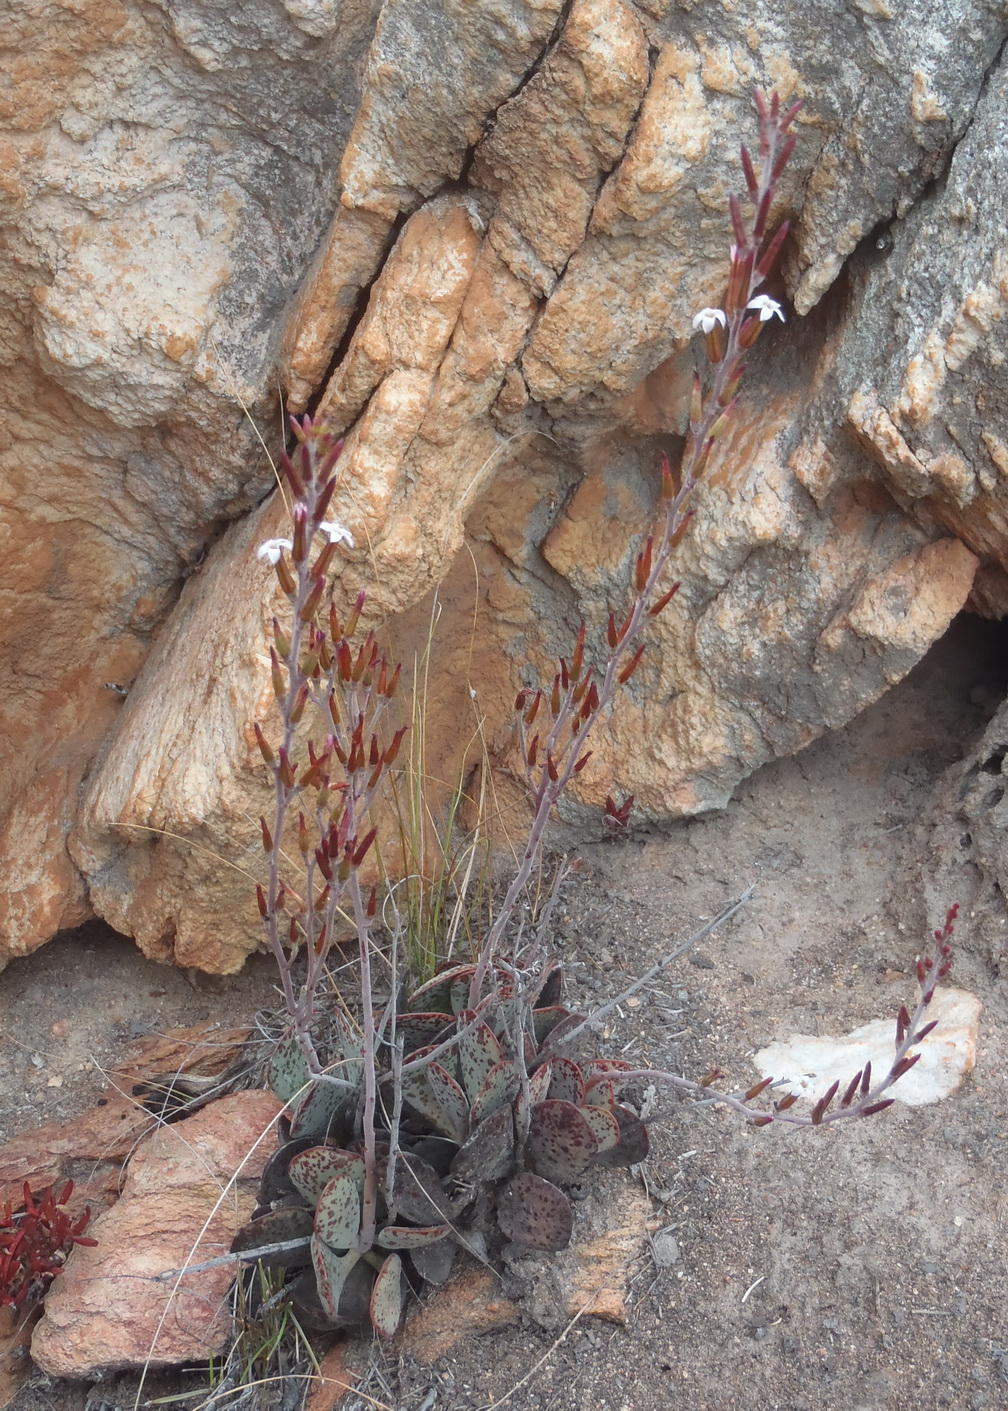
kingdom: Plantae
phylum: Tracheophyta
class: Magnoliopsida
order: Saxifragales
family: Crassulaceae
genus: Adromischus
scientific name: Adromischus triflorus
